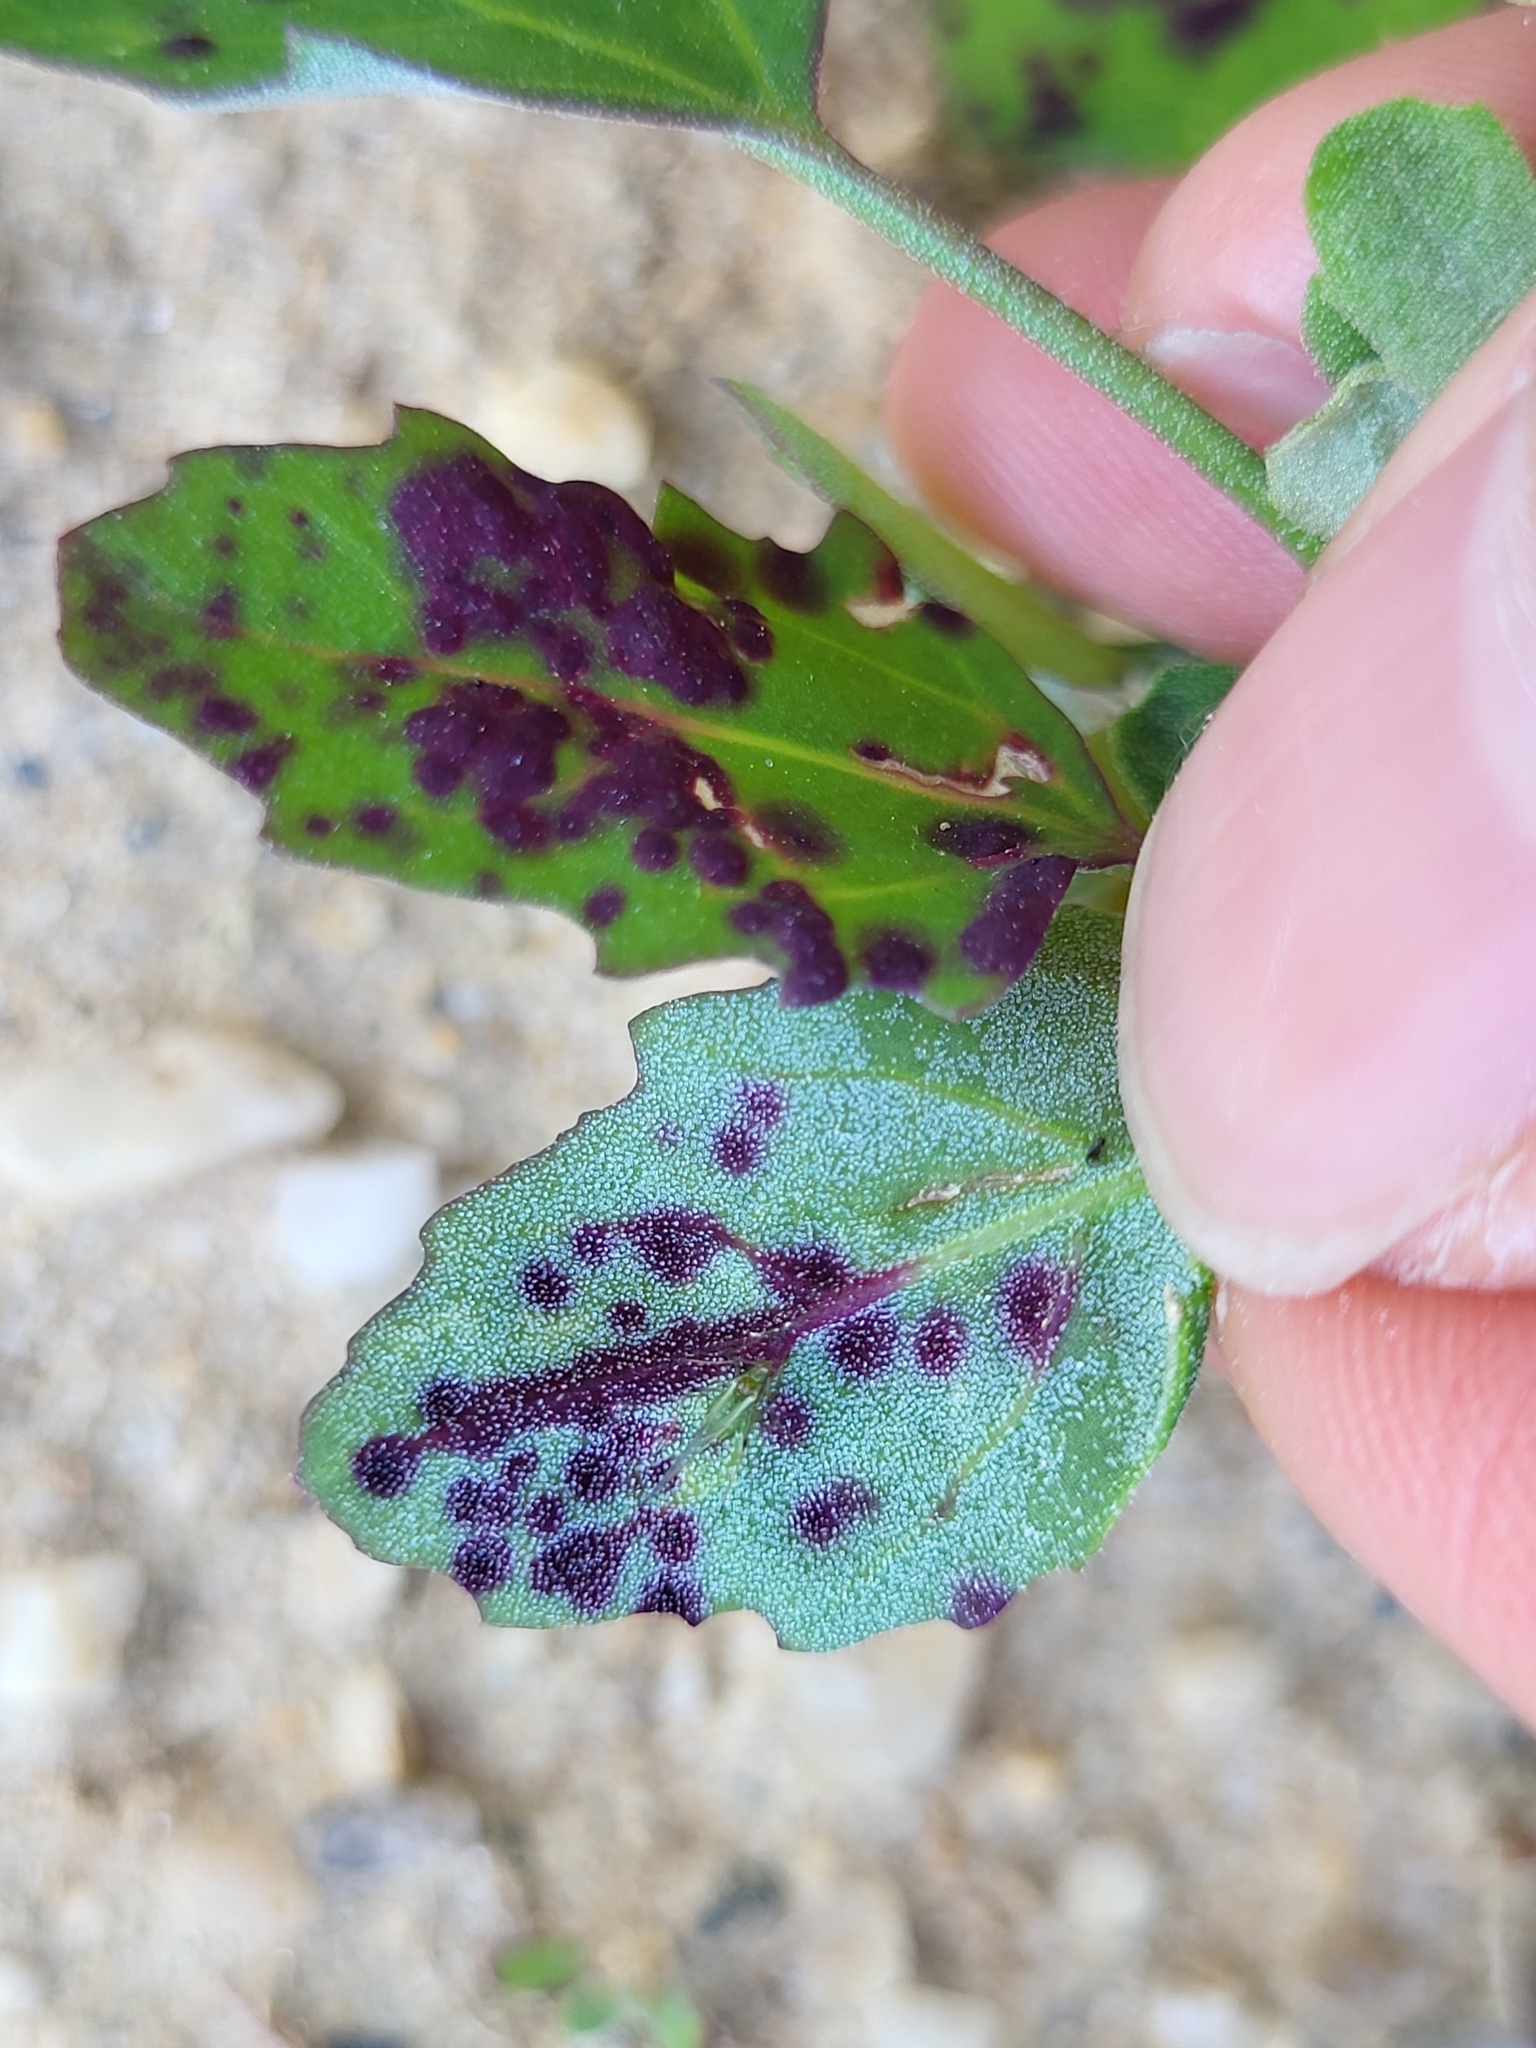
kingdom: Animalia
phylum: Arthropoda
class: Insecta
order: Hemiptera
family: Cicadellidae
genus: Norvellina
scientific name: Norvellina chenopodii
